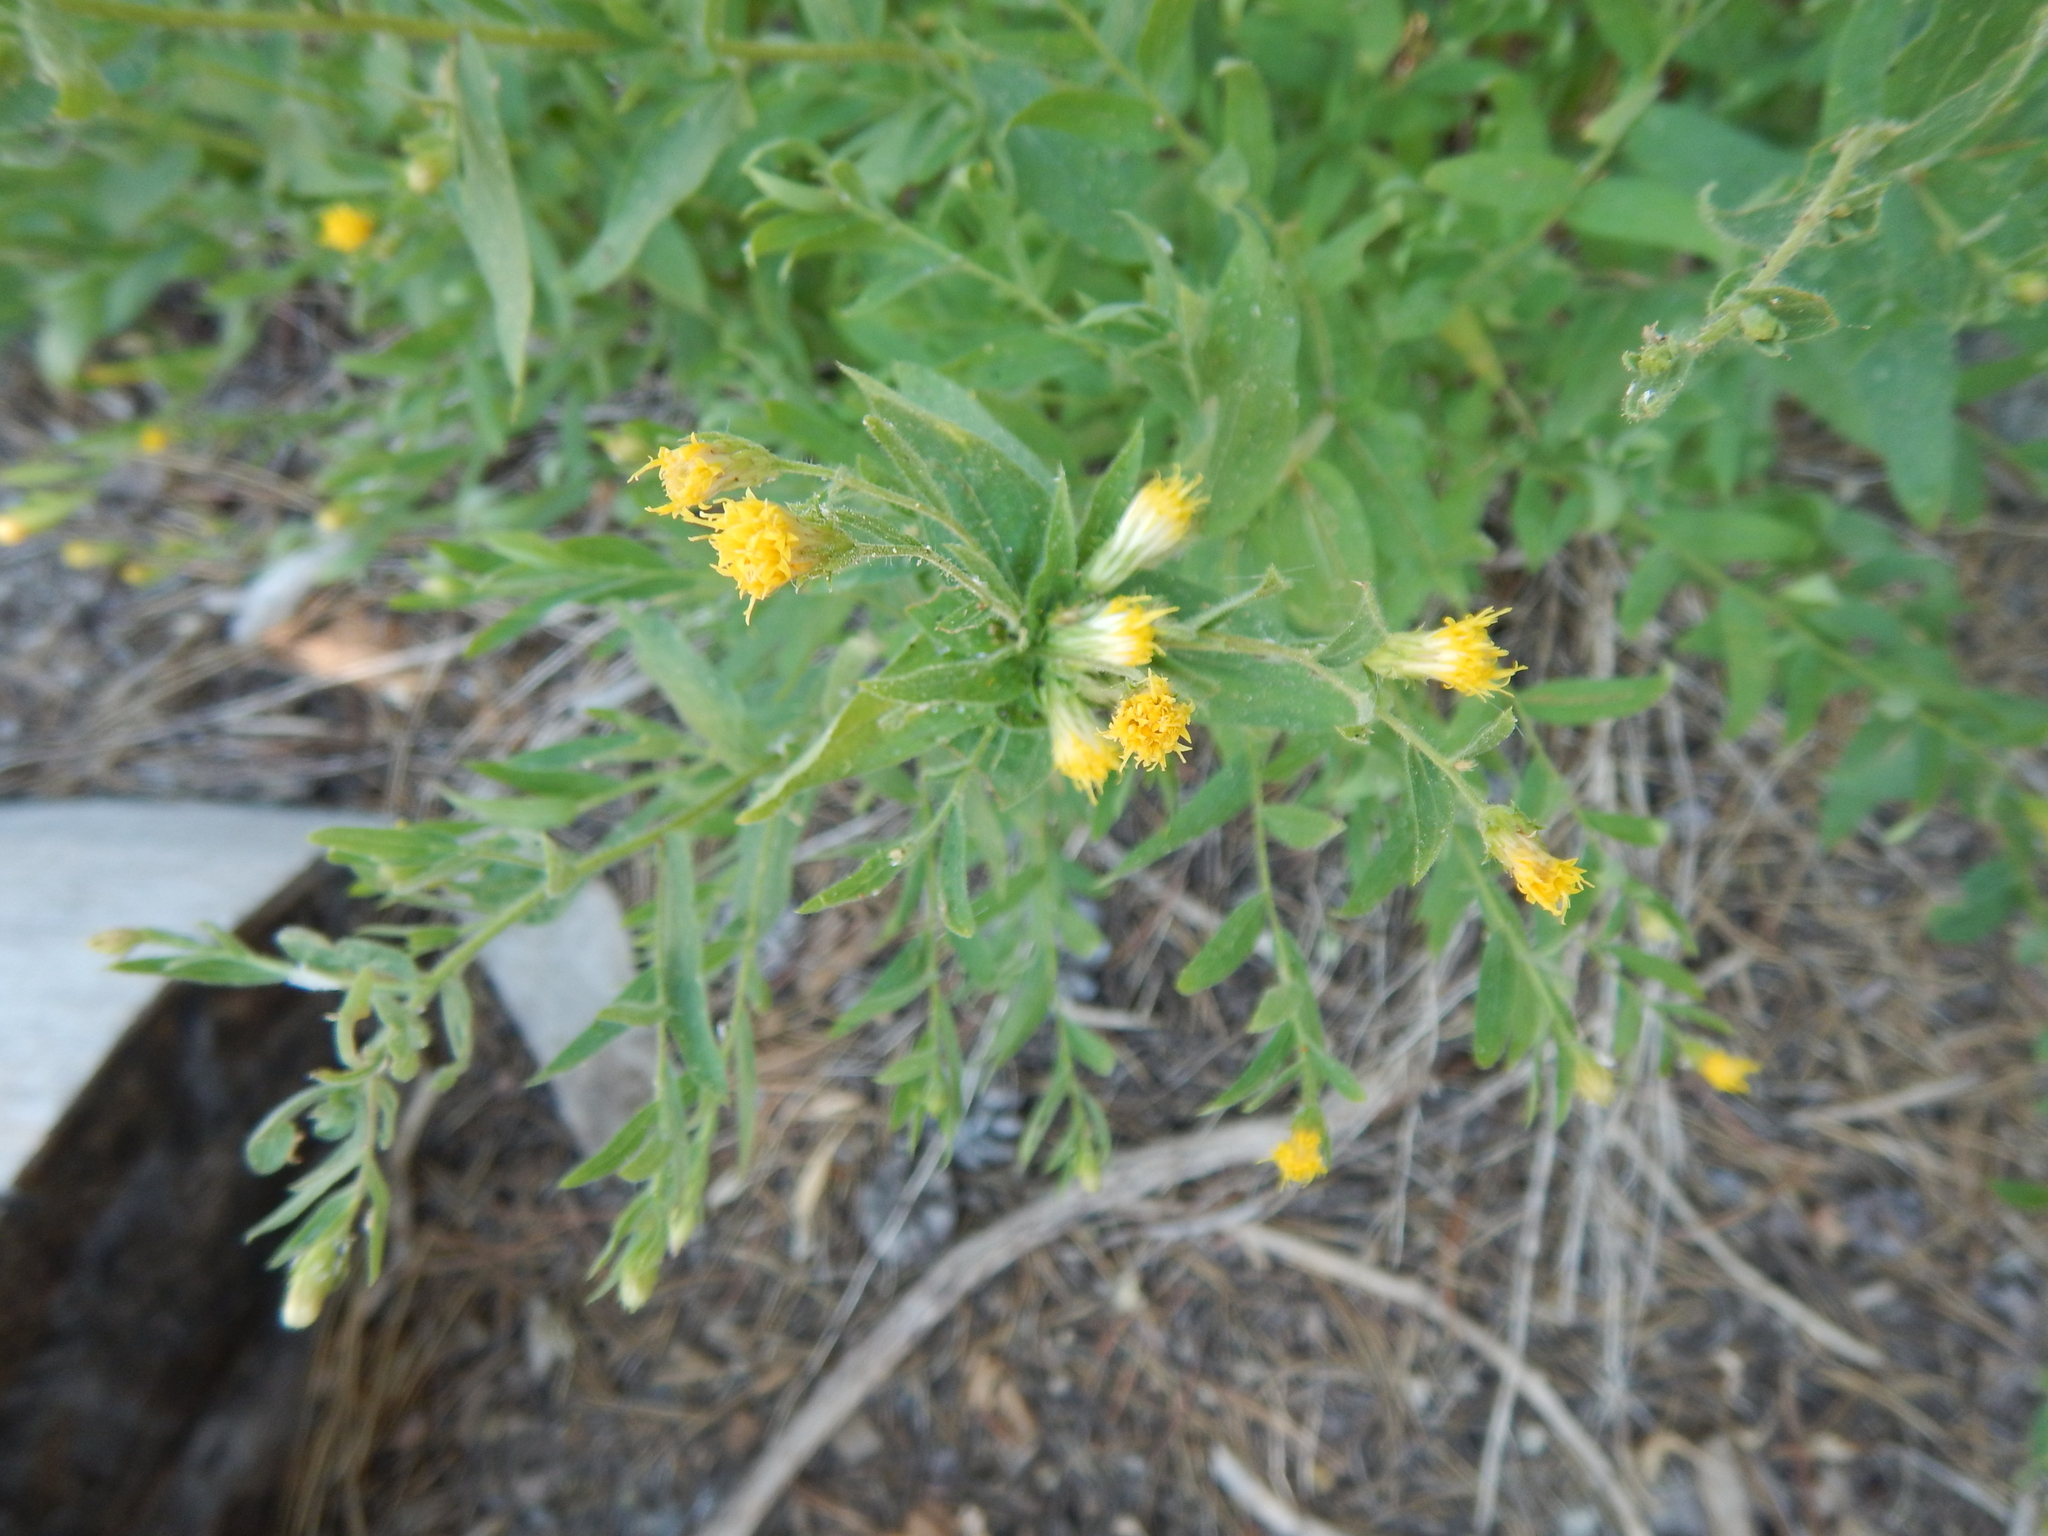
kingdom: Plantae
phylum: Tracheophyta
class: Magnoliopsida
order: Asterales
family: Asteraceae
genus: Eucephalus
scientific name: Eucephalus breweri
